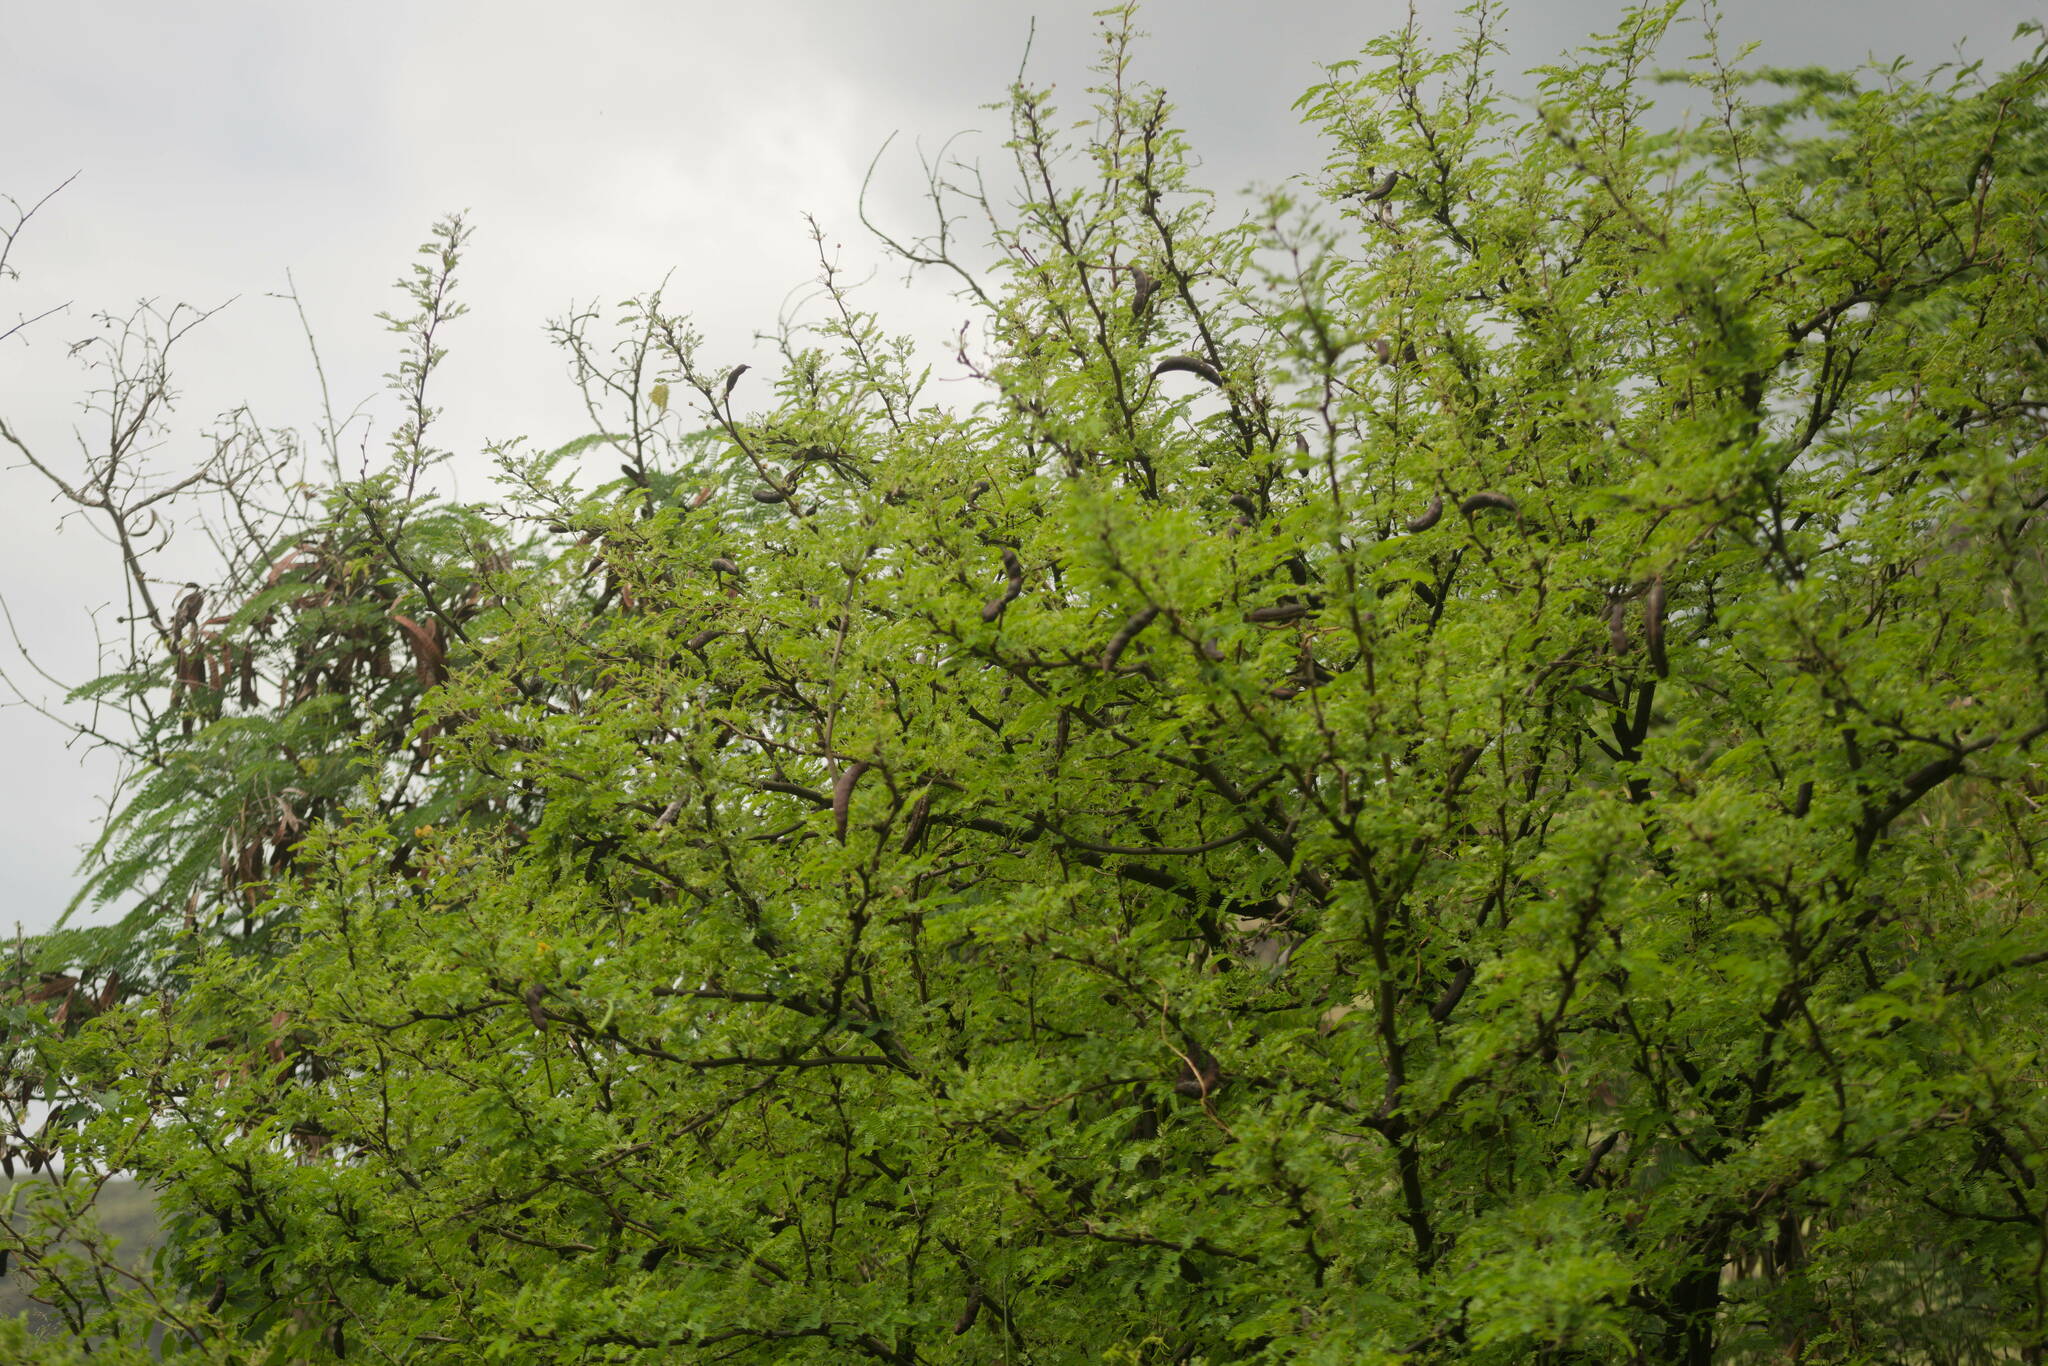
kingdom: Plantae
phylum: Tracheophyta
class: Magnoliopsida
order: Fabales
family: Fabaceae
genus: Vachellia
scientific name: Vachellia farnesiana
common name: Sweet acacia
